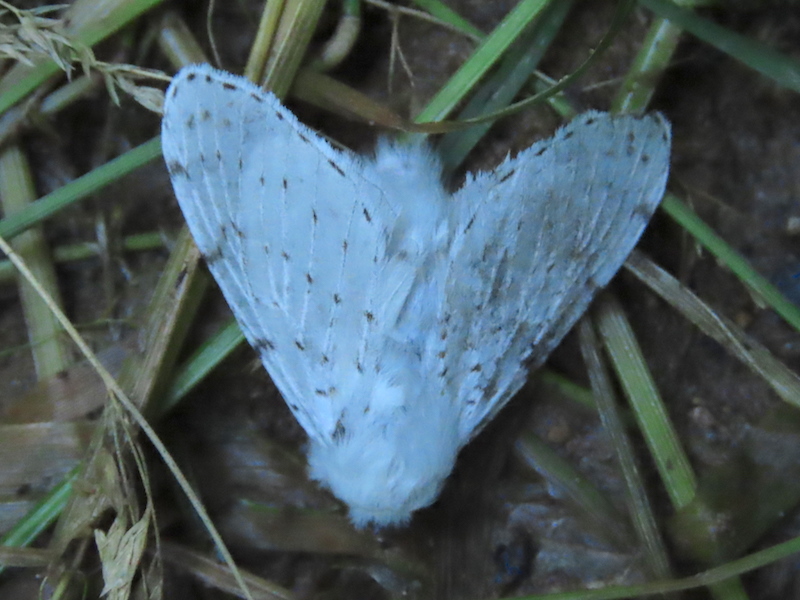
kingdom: Animalia
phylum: Arthropoda
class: Insecta
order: Lepidoptera
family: Lasiocampidae
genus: Artace
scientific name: Artace cribrarius
